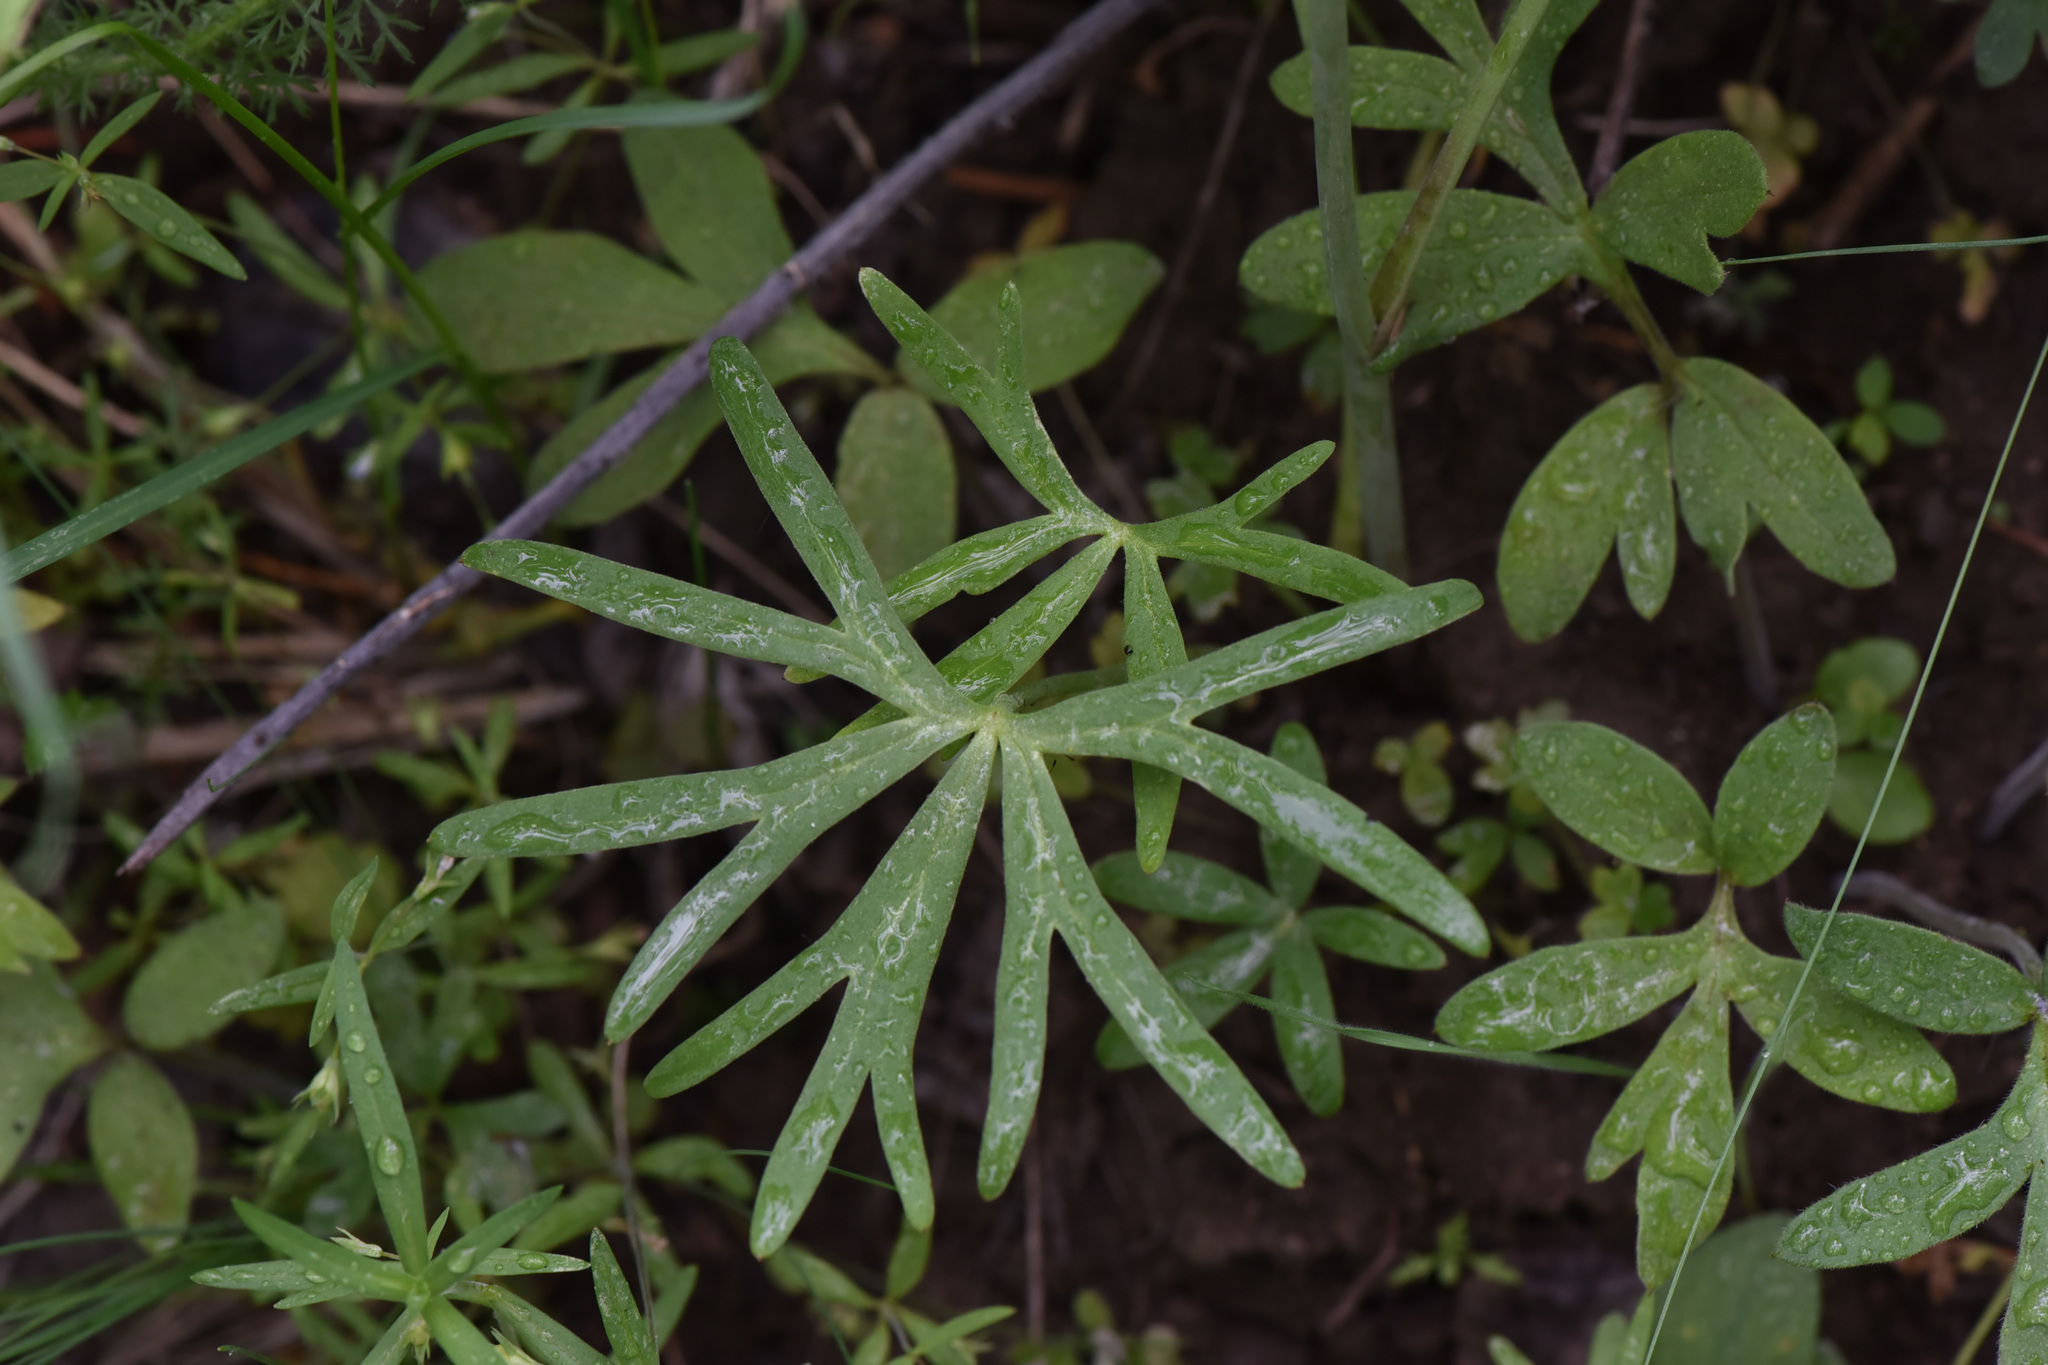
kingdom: Plantae
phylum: Tracheophyta
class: Magnoliopsida
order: Ranunculales
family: Ranunculaceae
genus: Delphinium
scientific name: Delphinium nuttallianum
